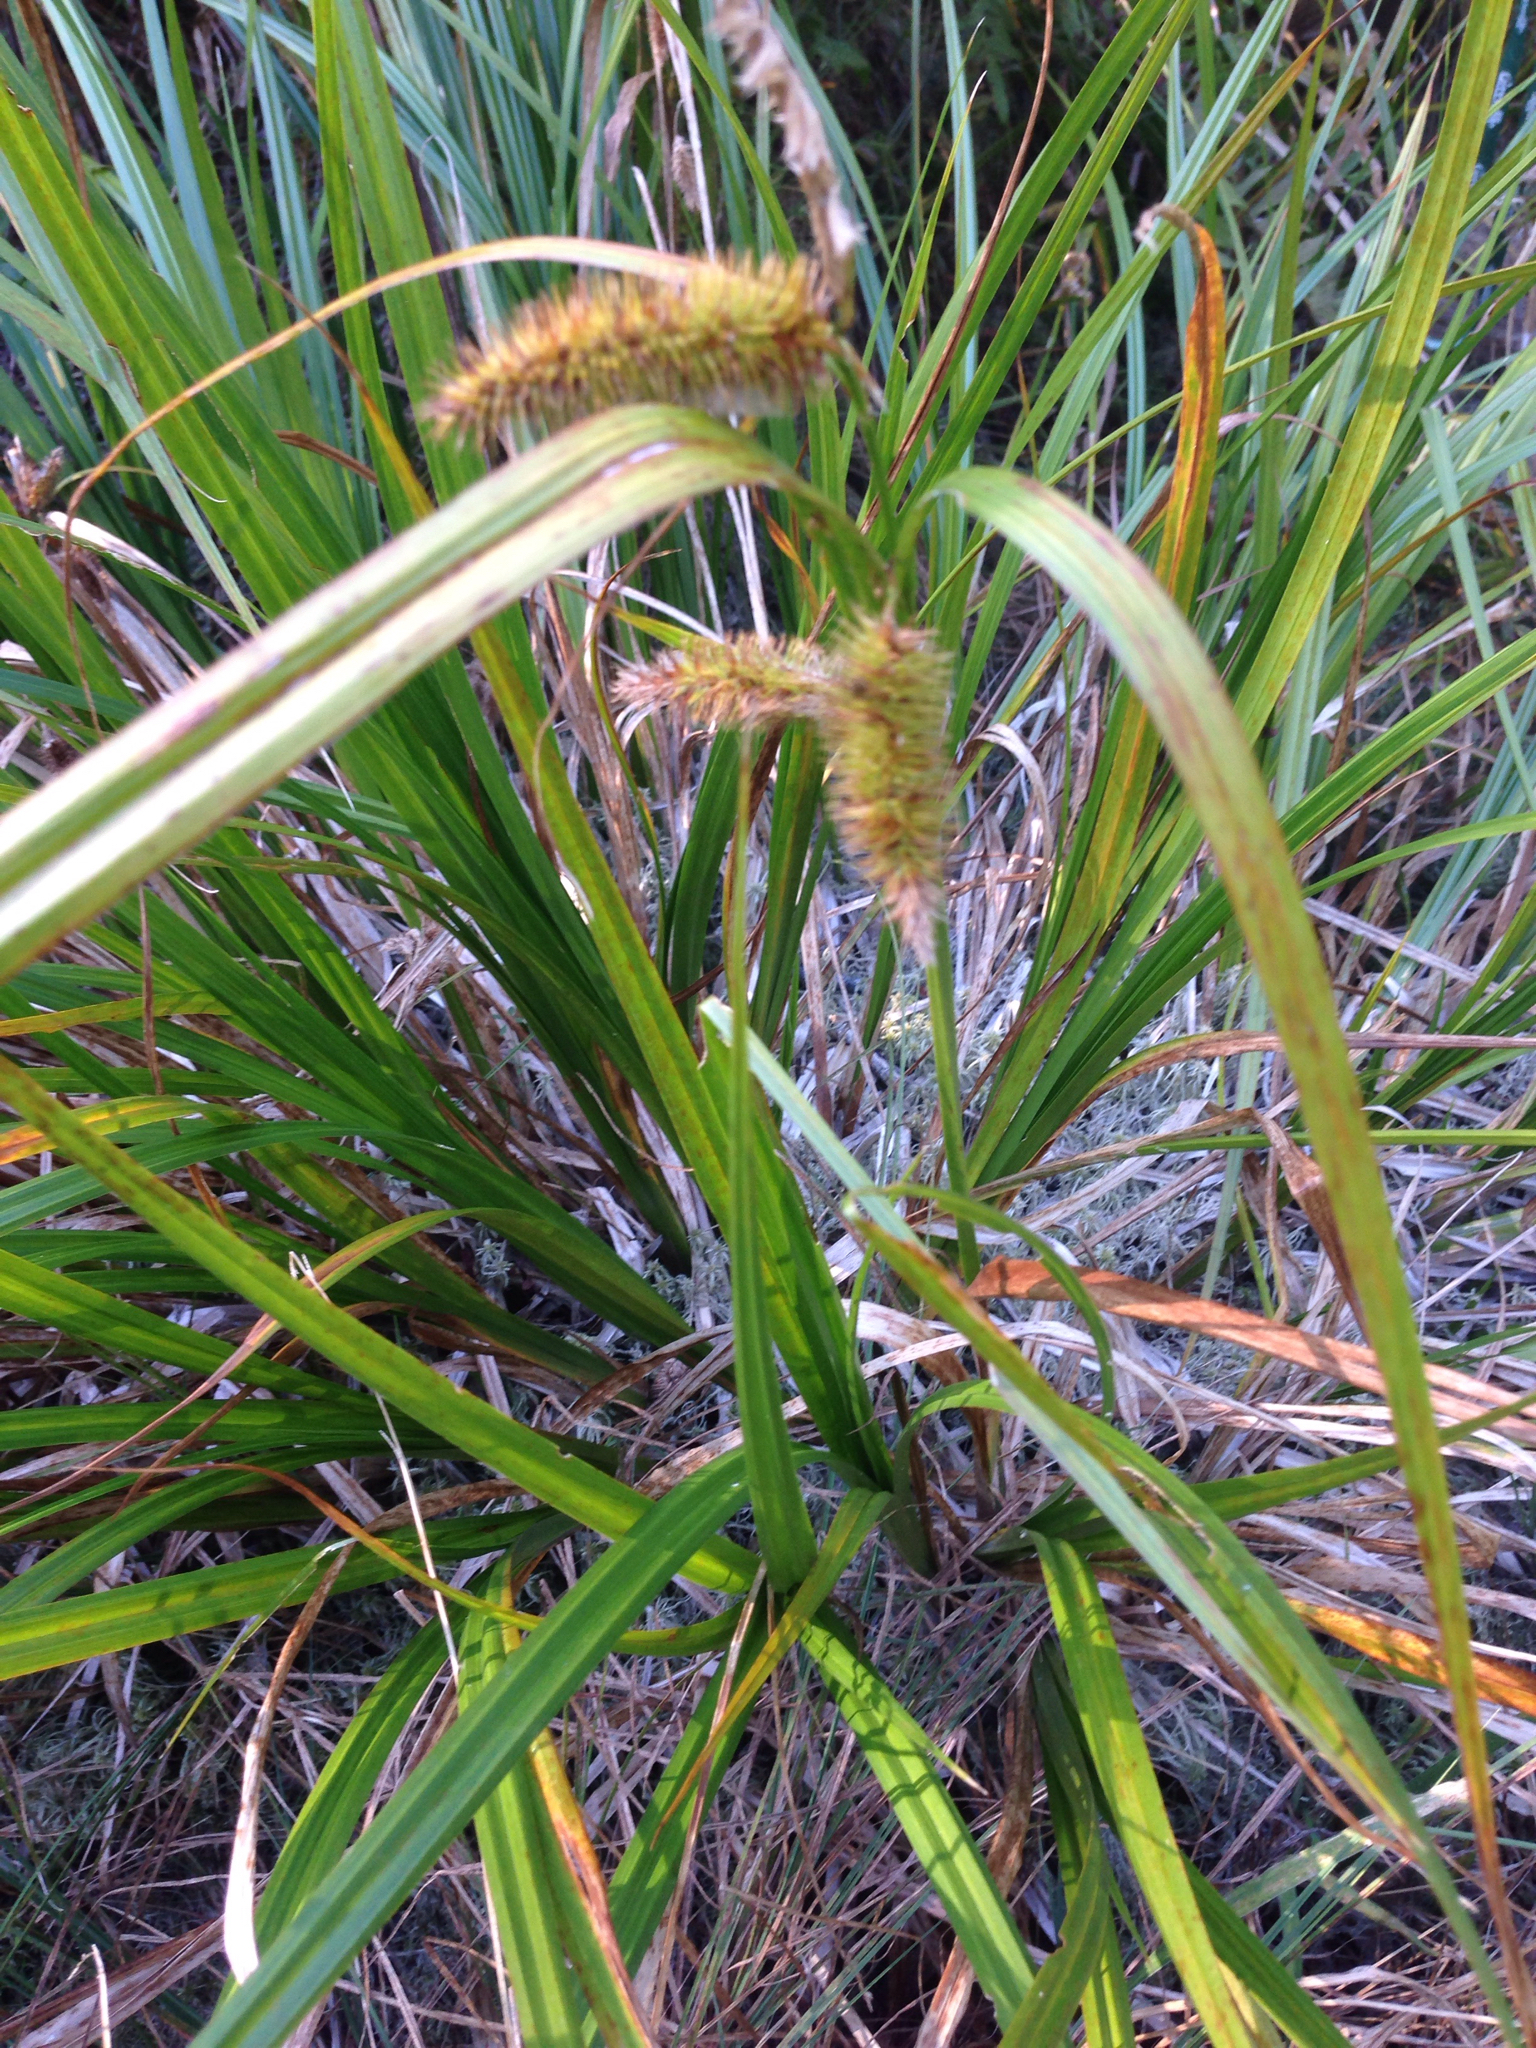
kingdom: Plantae
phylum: Tracheophyta
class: Liliopsida
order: Poales
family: Cyperaceae
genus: Carex
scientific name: Carex comosa
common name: Bristly sedge
